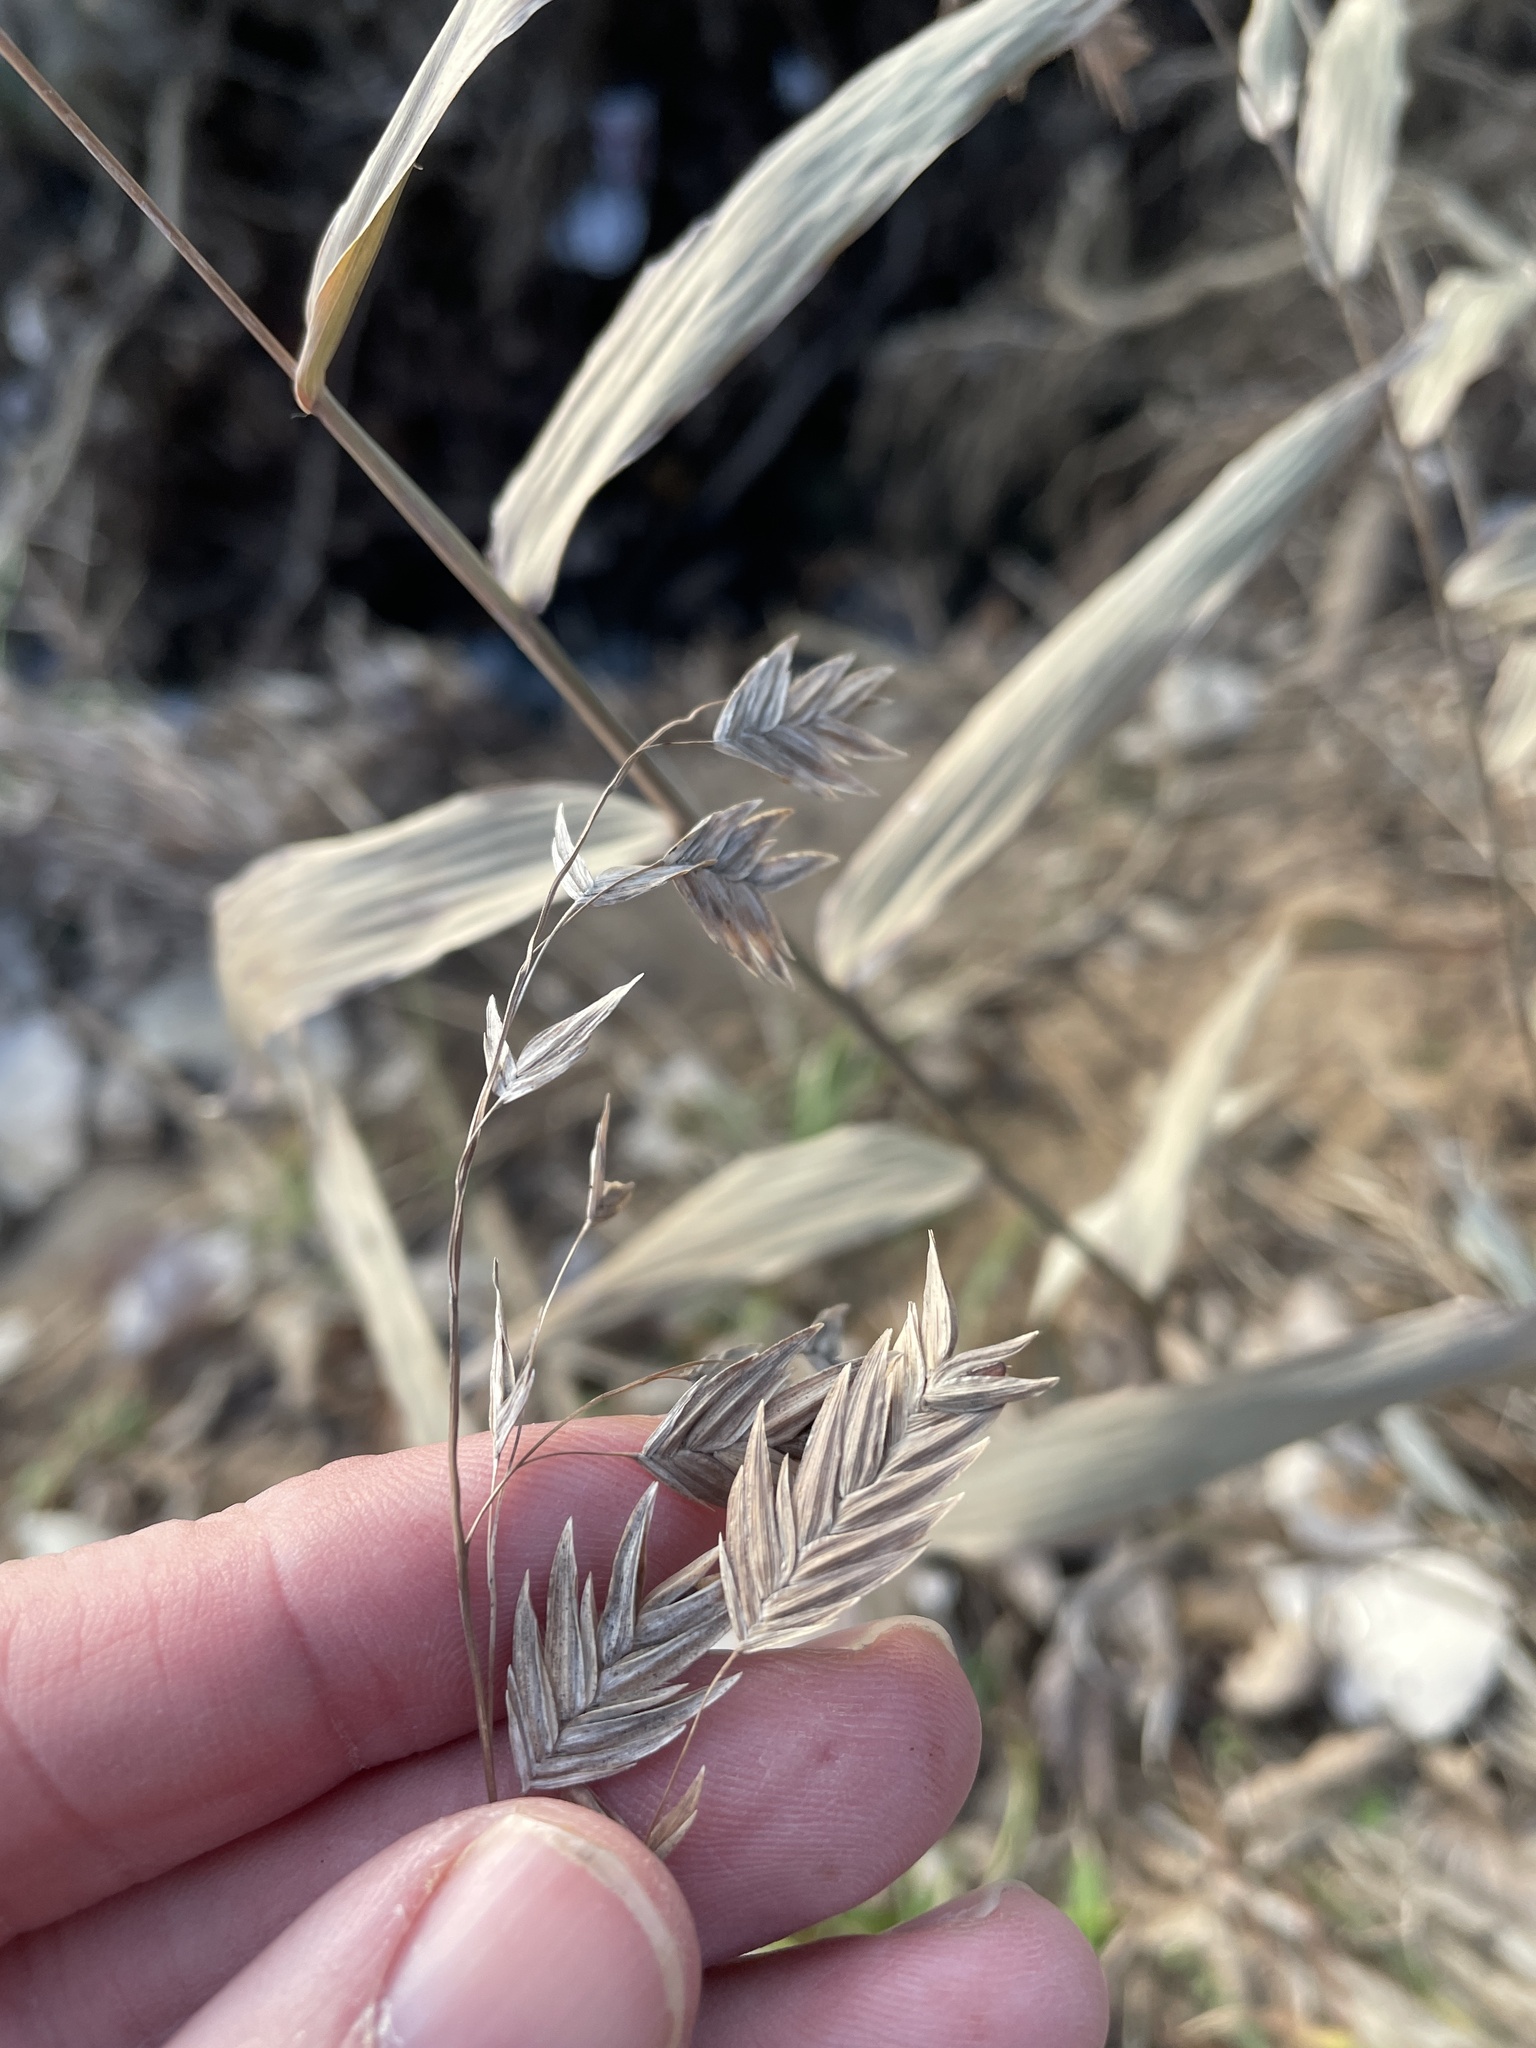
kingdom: Plantae
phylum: Tracheophyta
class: Liliopsida
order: Poales
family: Poaceae
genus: Chasmanthium
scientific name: Chasmanthium latifolium
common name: Broad-leaved chasmanthium
